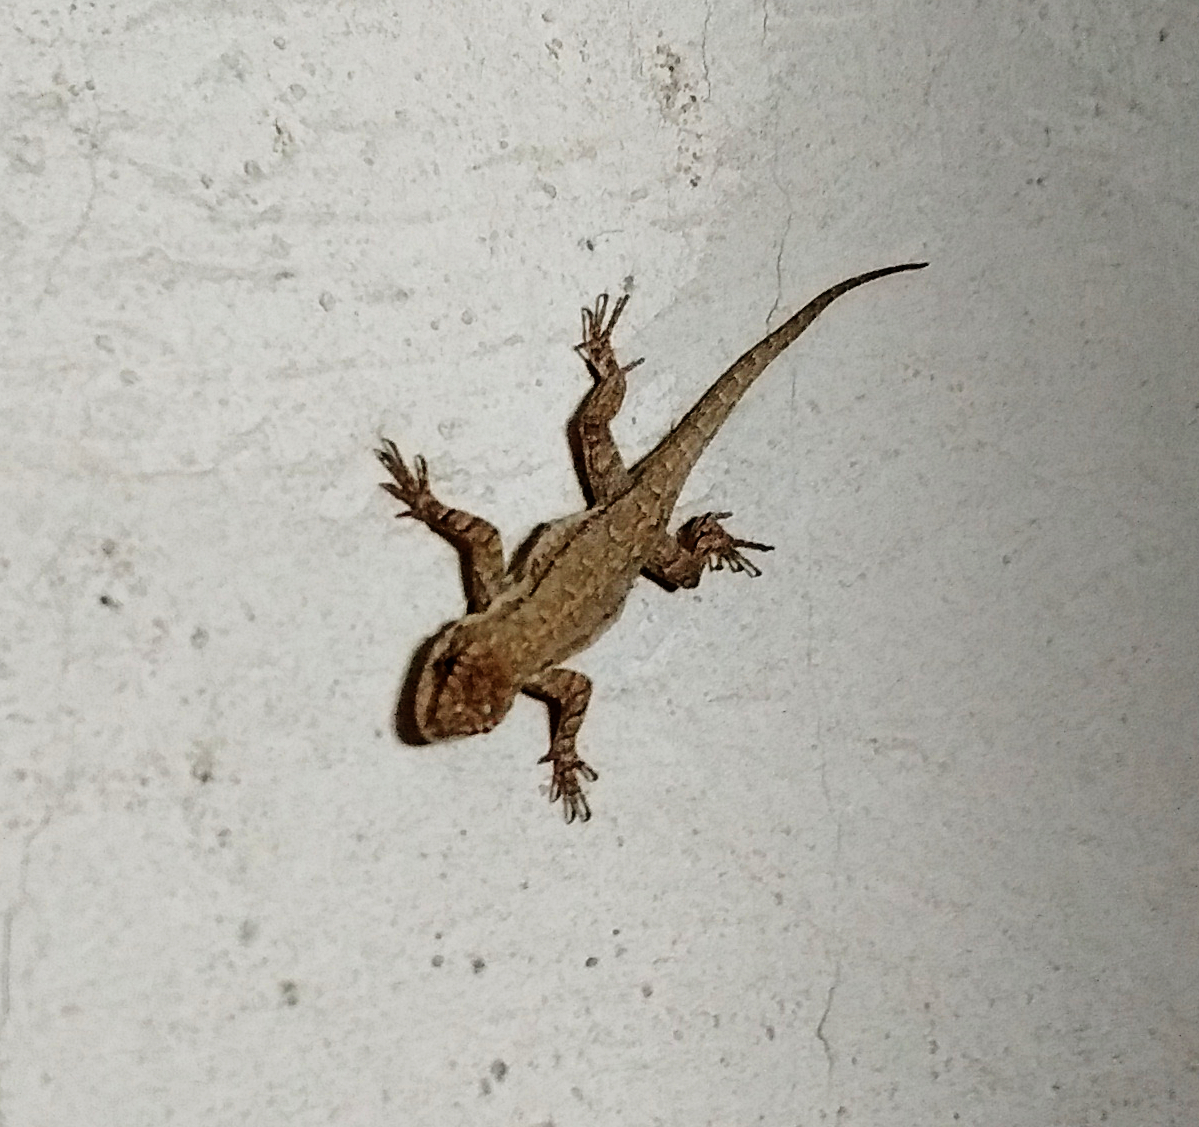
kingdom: Animalia
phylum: Chordata
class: Squamata
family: Phrynosomatidae
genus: Urosaurus
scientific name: Urosaurus ornatus
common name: Ornate tree lizard
